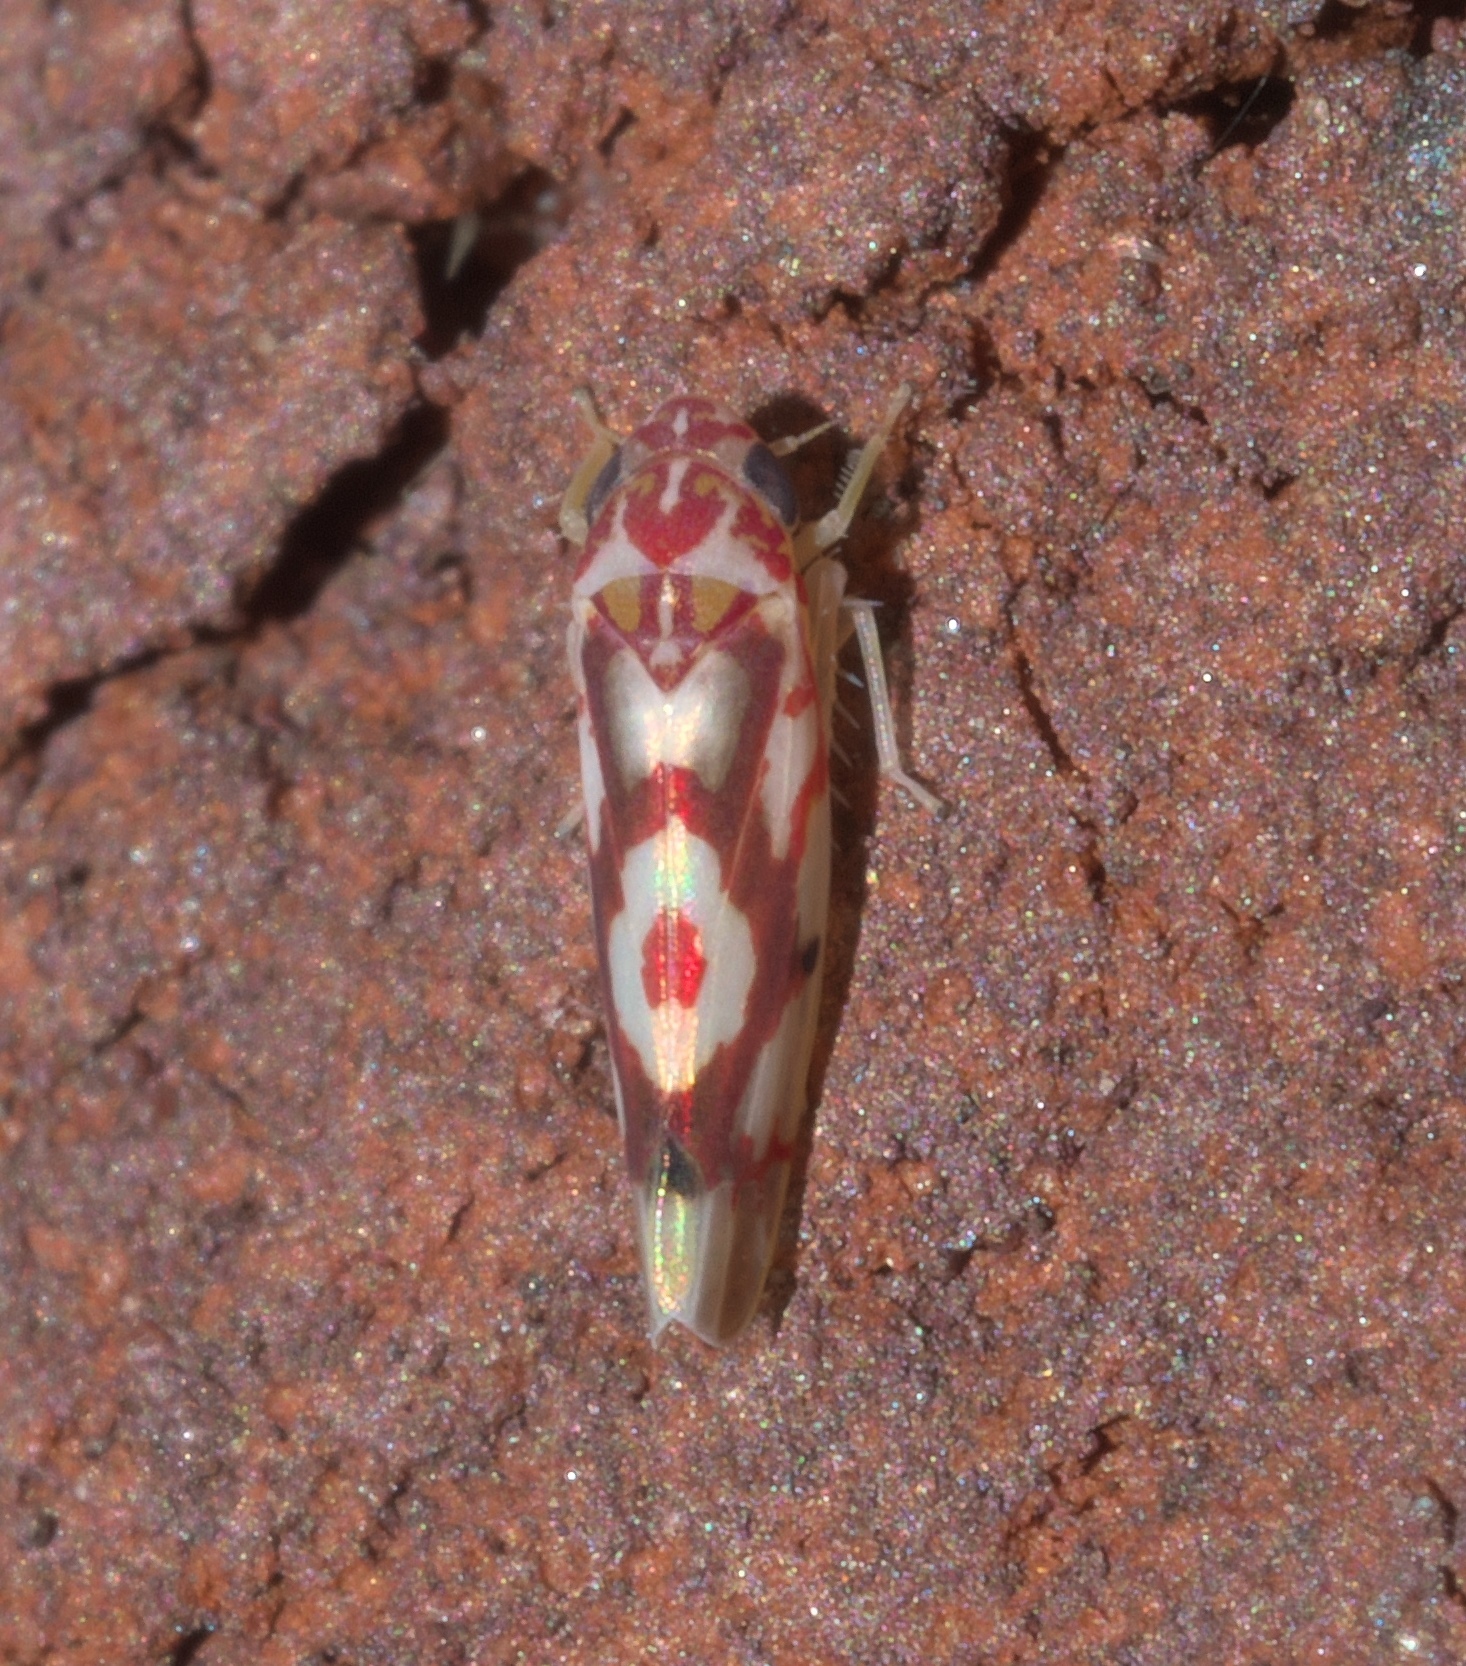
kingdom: Animalia
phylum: Arthropoda
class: Insecta
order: Hemiptera
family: Cicadellidae
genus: Eratoneura
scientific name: Eratoneura ligata
